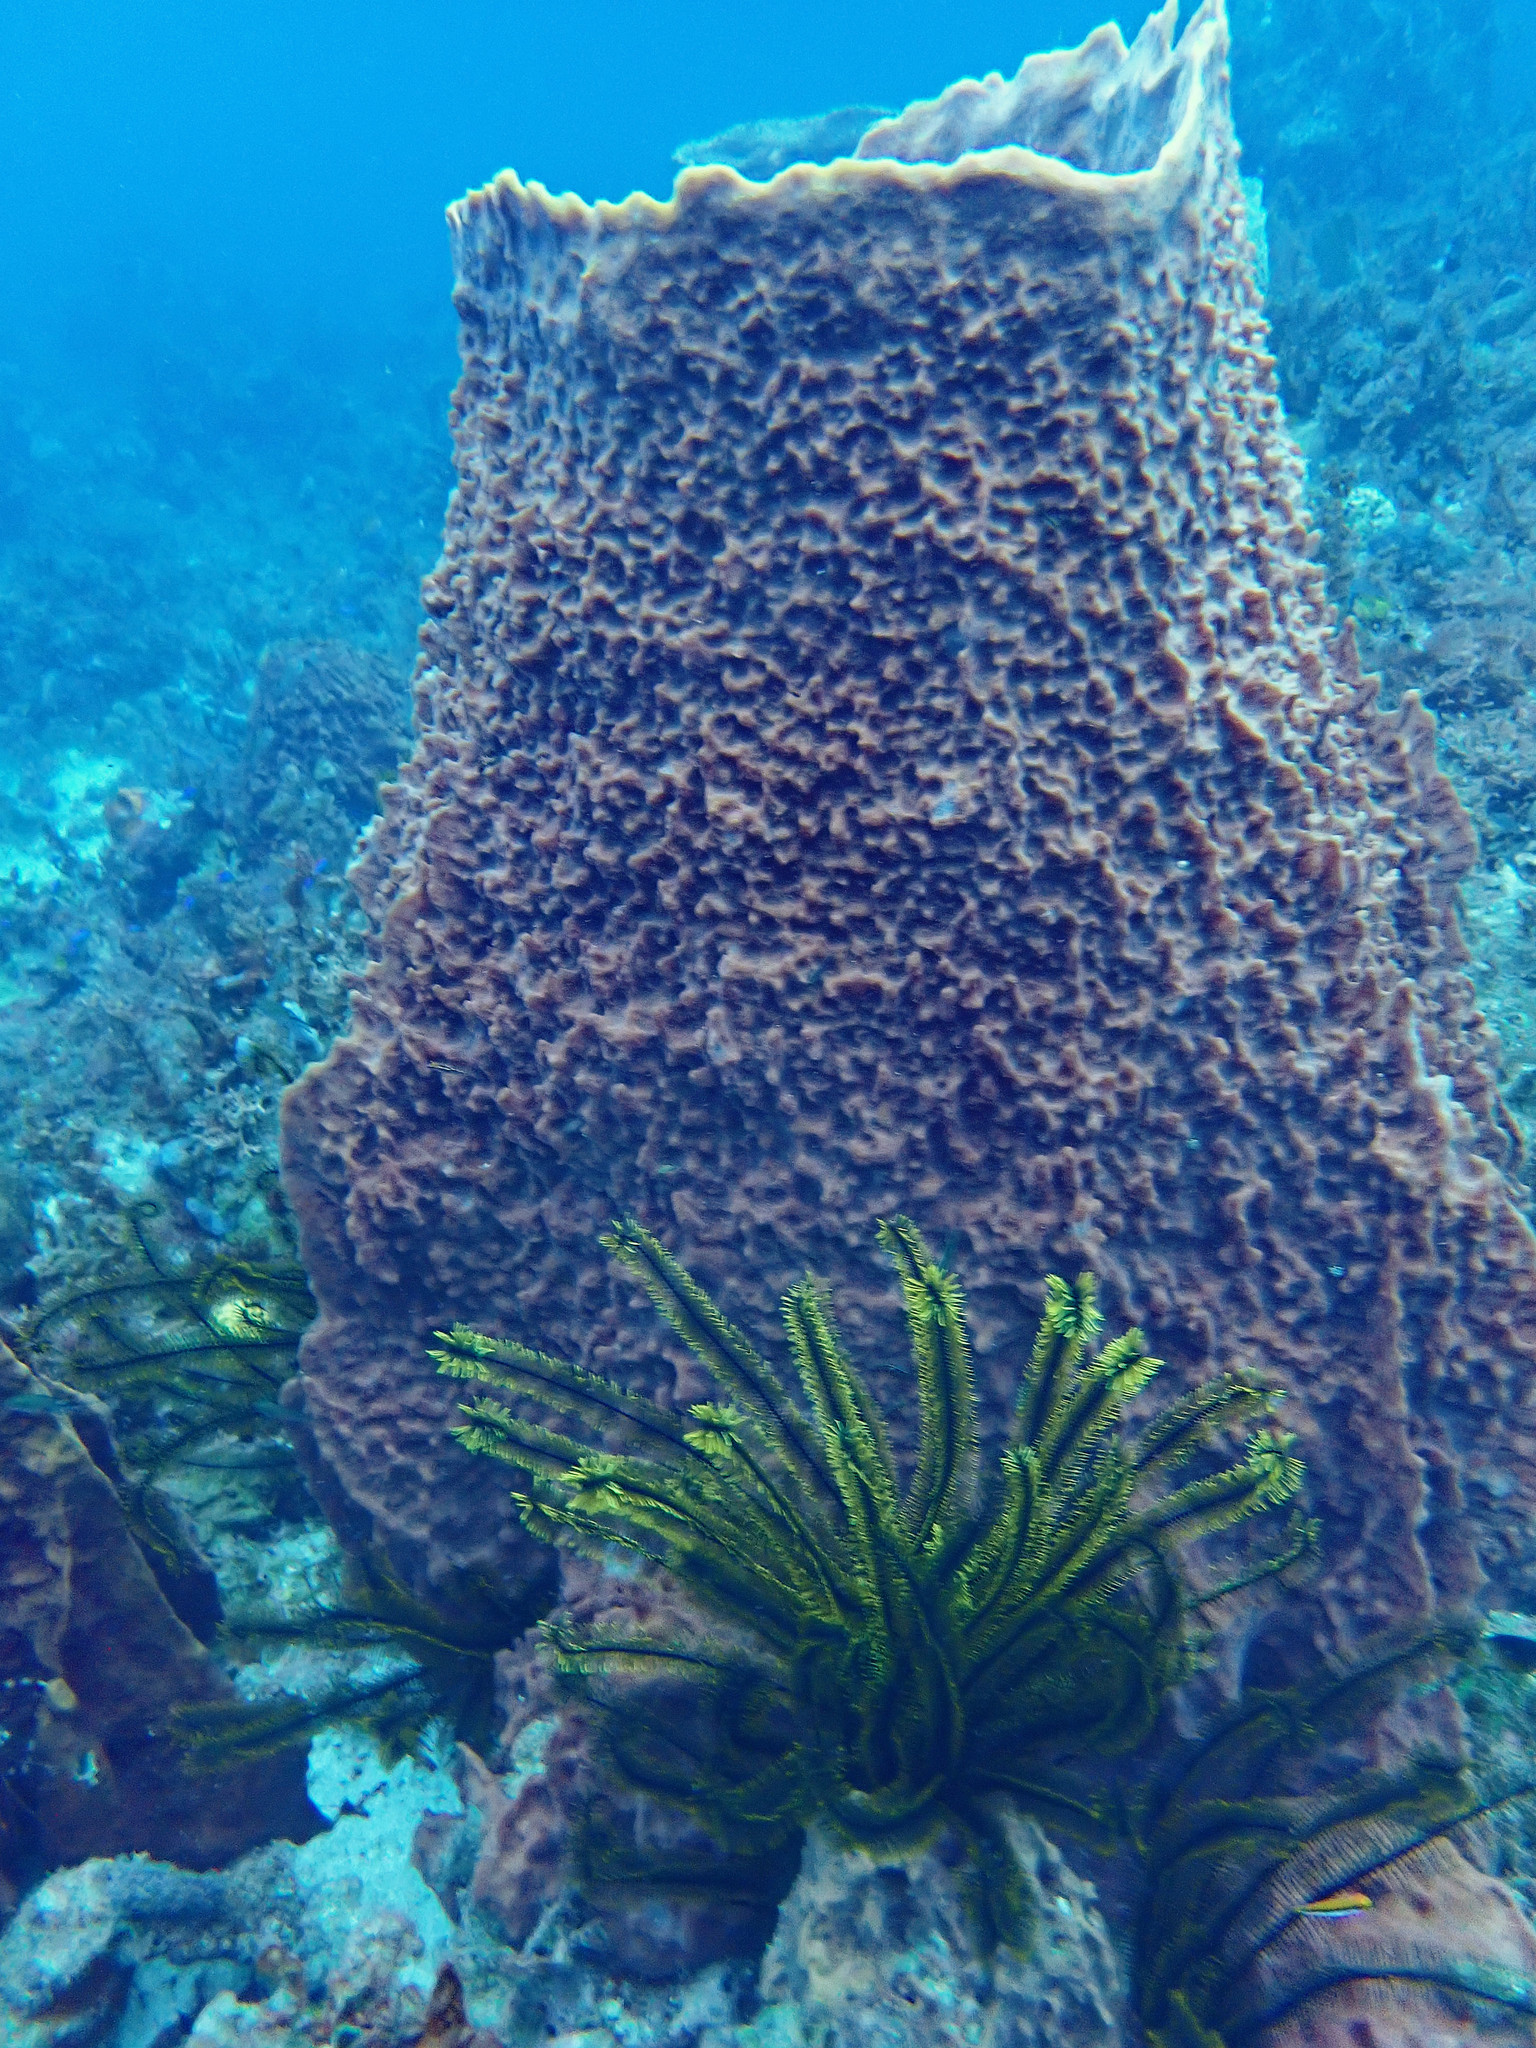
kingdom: Animalia
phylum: Porifera
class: Demospongiae
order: Haplosclerida
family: Petrosiidae
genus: Xestospongia
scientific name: Xestospongia muta
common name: Giant barrel sponge
